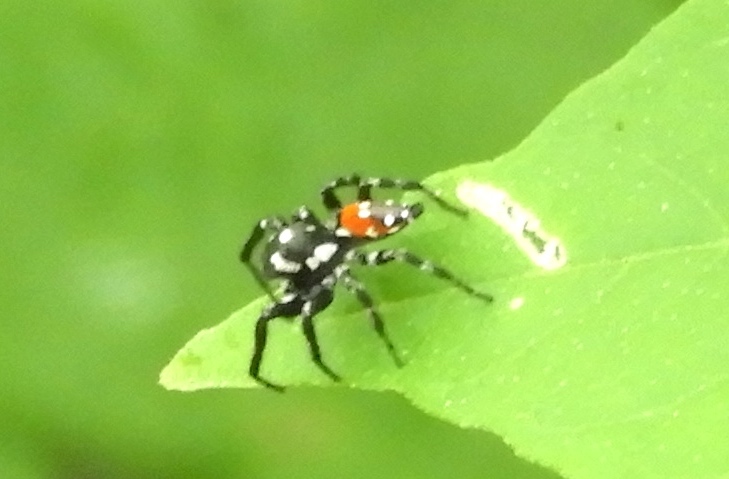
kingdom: Animalia
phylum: Arthropoda
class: Arachnida
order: Araneae
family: Salticidae
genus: Nycerella
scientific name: Nycerella
